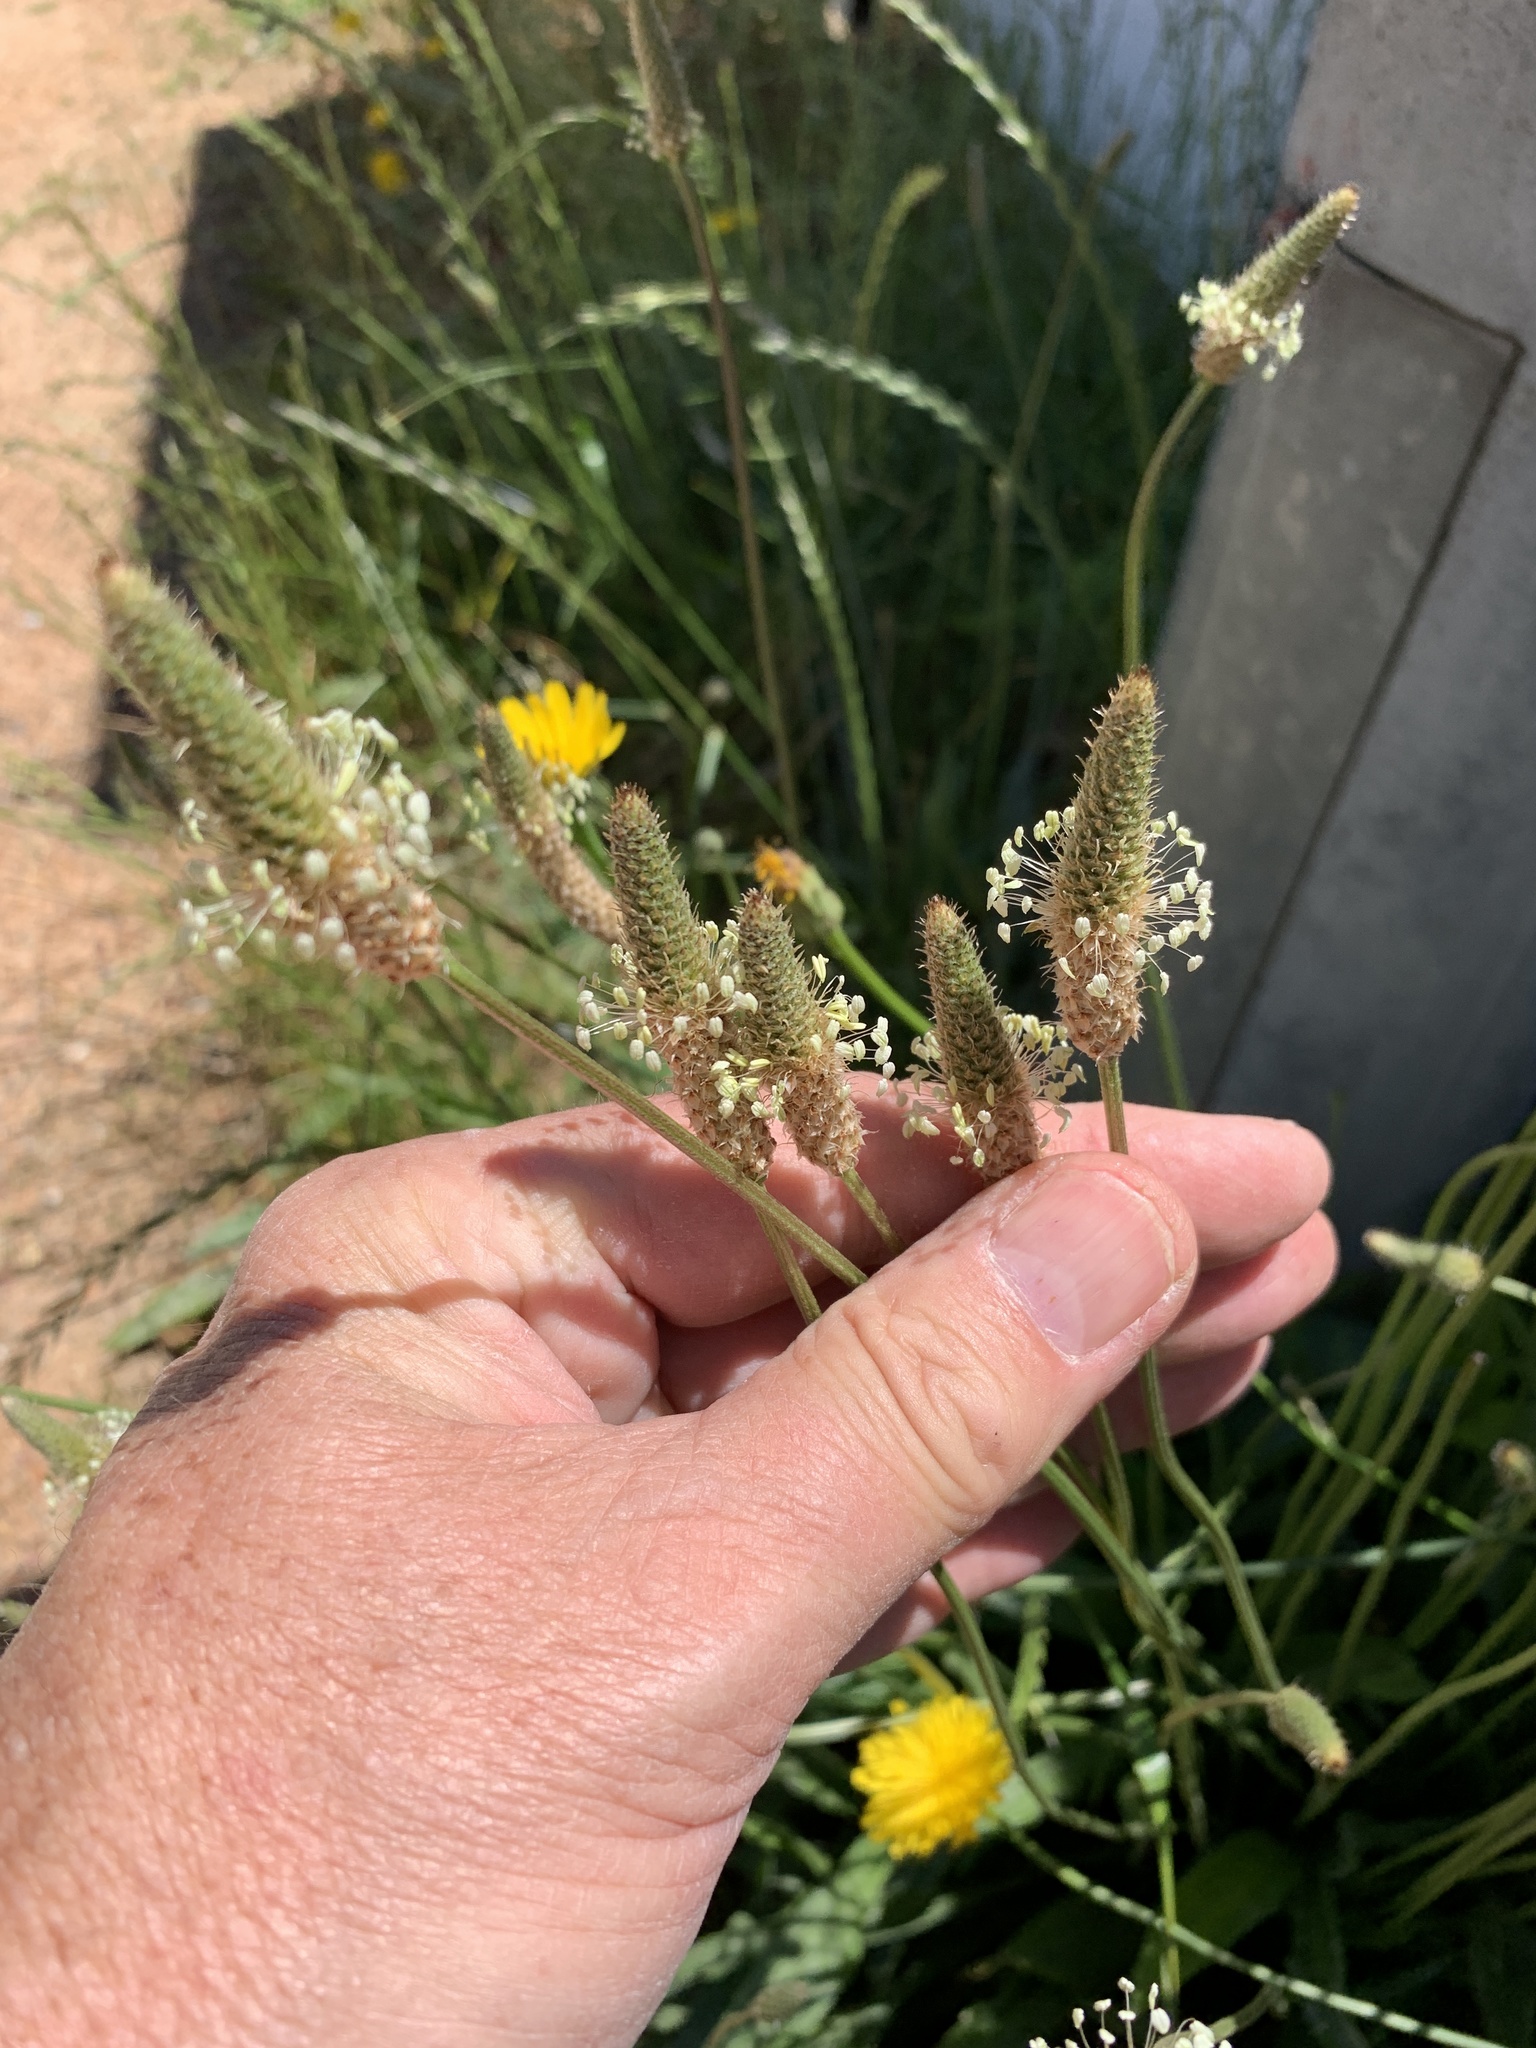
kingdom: Plantae
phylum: Tracheophyta
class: Magnoliopsida
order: Lamiales
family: Plantaginaceae
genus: Plantago
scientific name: Plantago lanceolata
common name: Ribwort plantain
